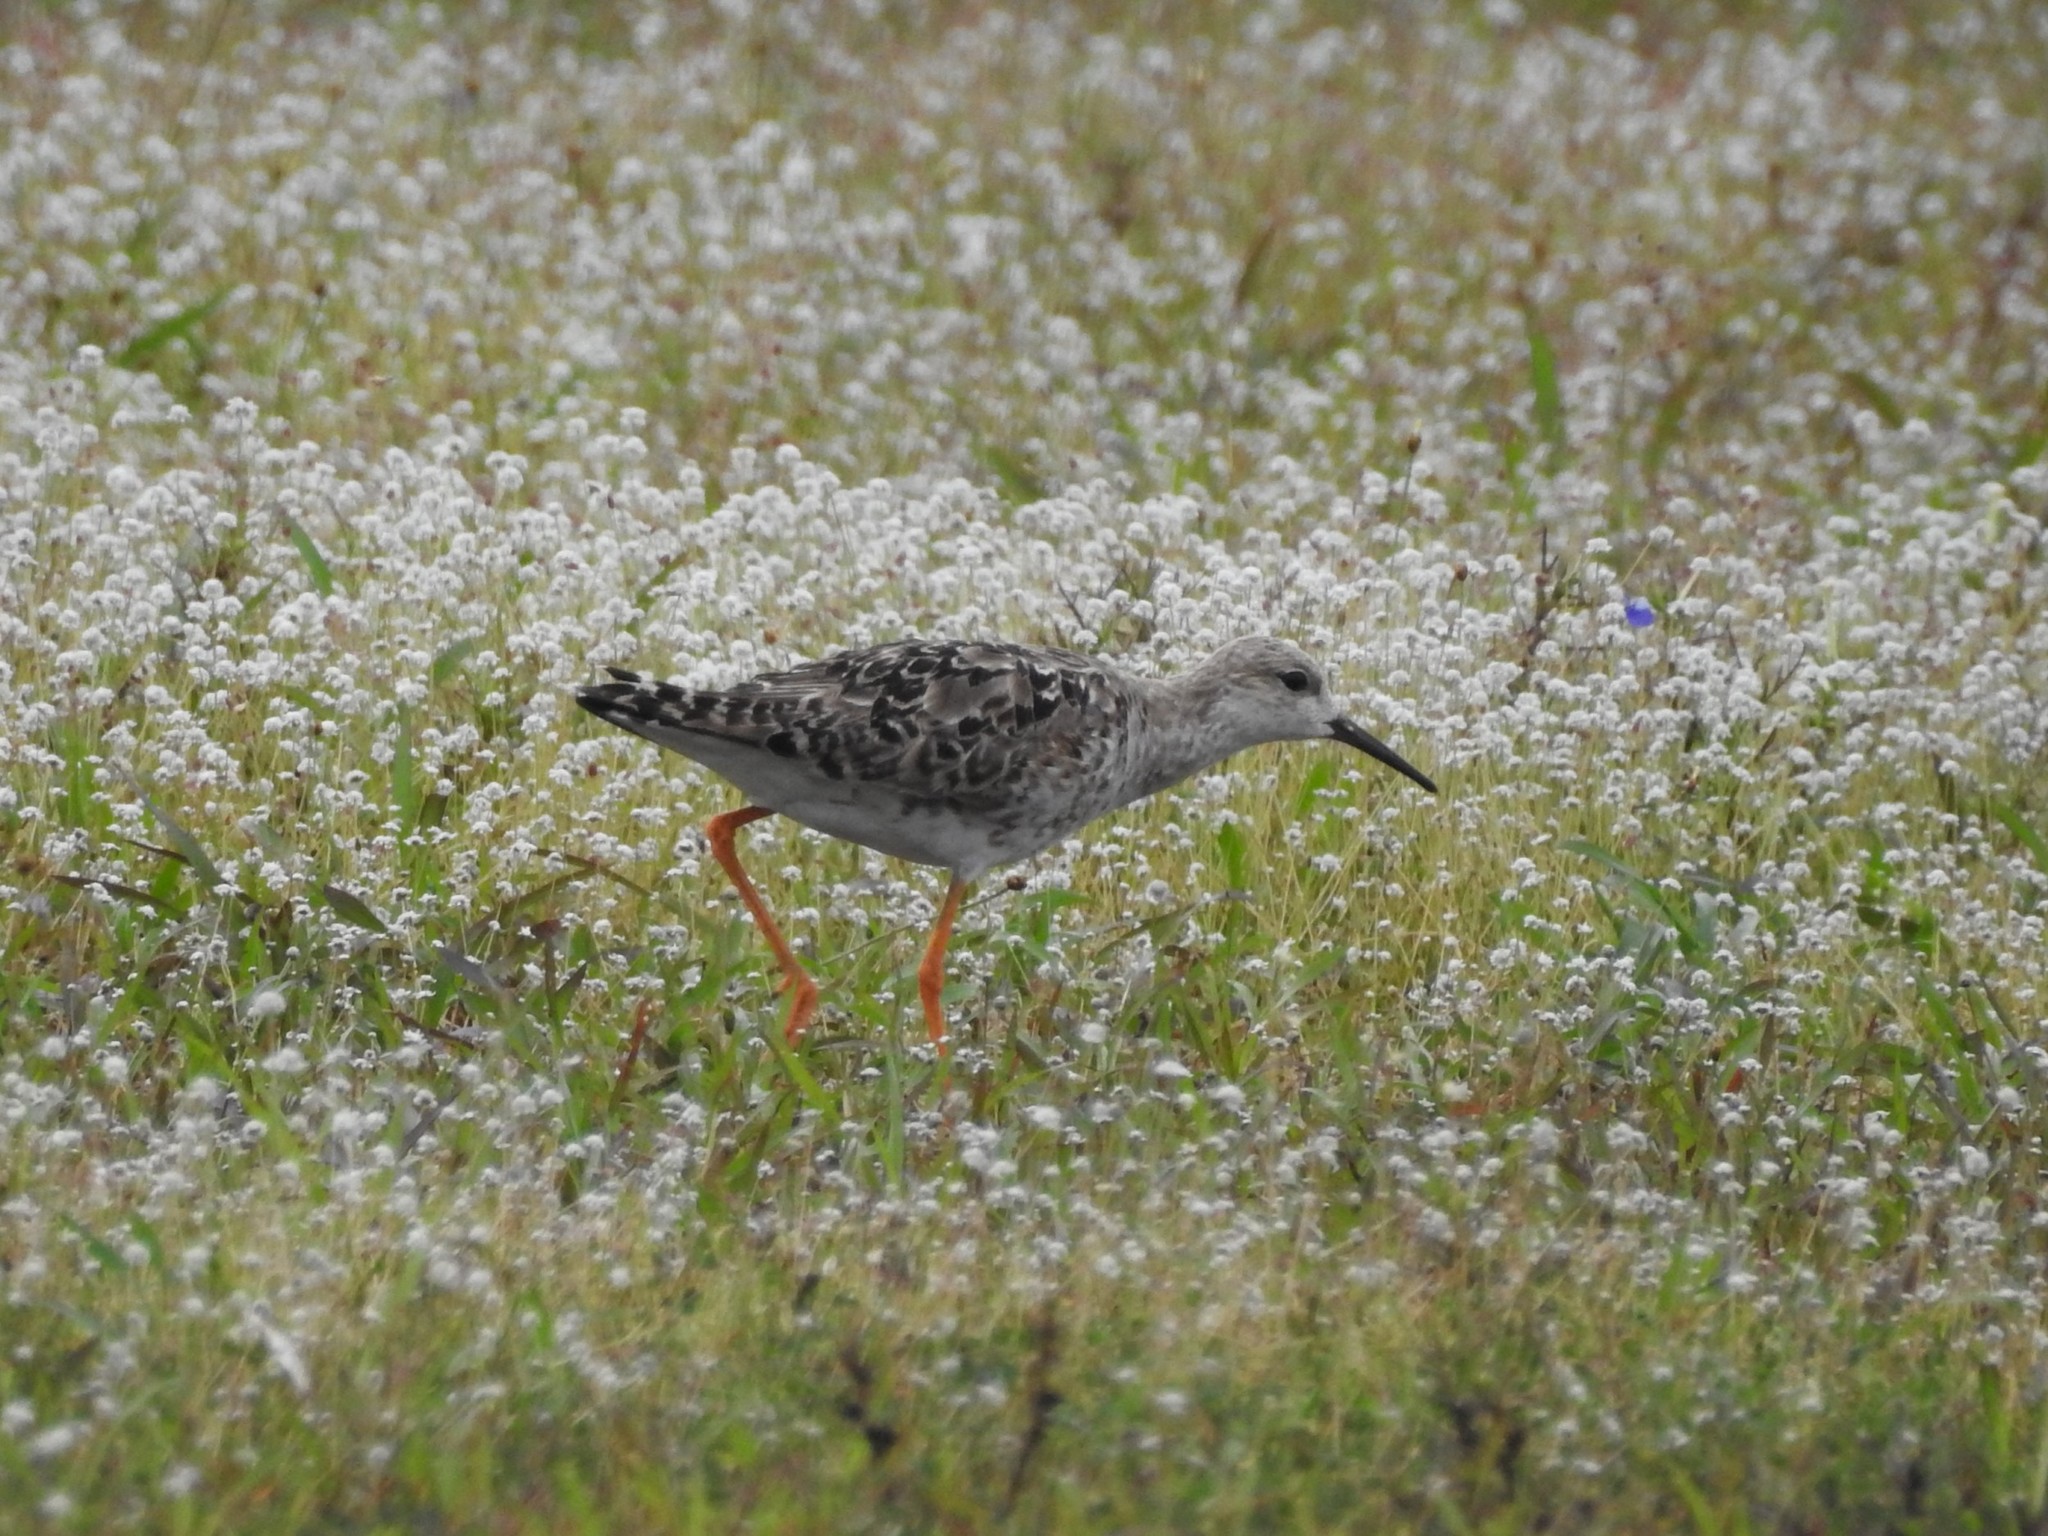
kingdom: Animalia
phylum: Chordata
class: Aves
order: Charadriiformes
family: Scolopacidae
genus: Calidris
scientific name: Calidris pugnax
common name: Ruff
